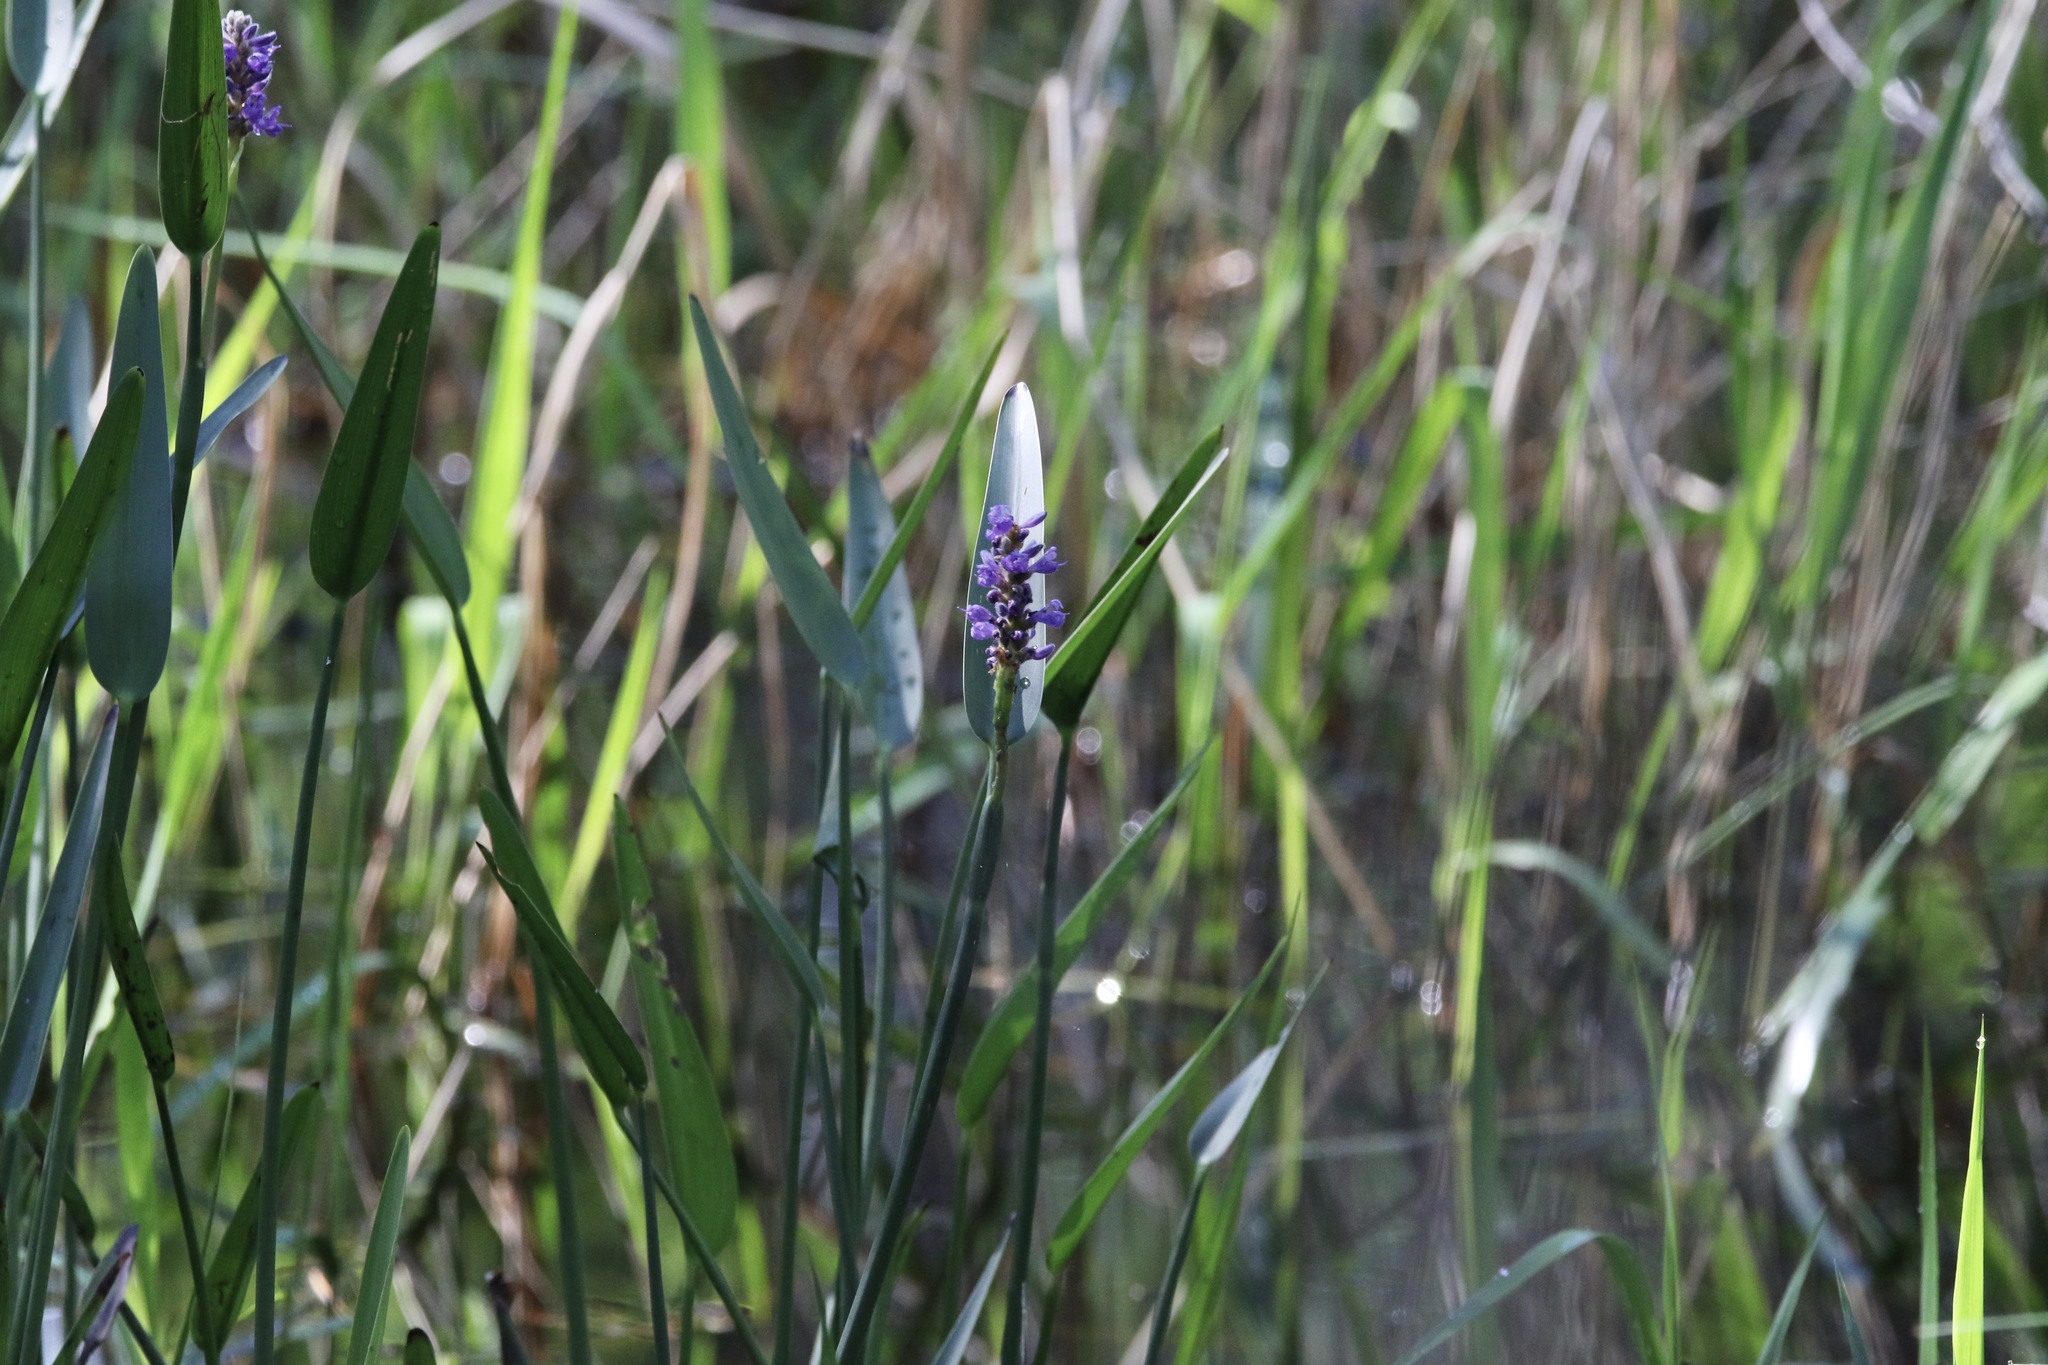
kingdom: Plantae
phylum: Tracheophyta
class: Liliopsida
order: Commelinales
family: Pontederiaceae
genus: Pontederia
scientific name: Pontederia cordata
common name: Pickerelweed
